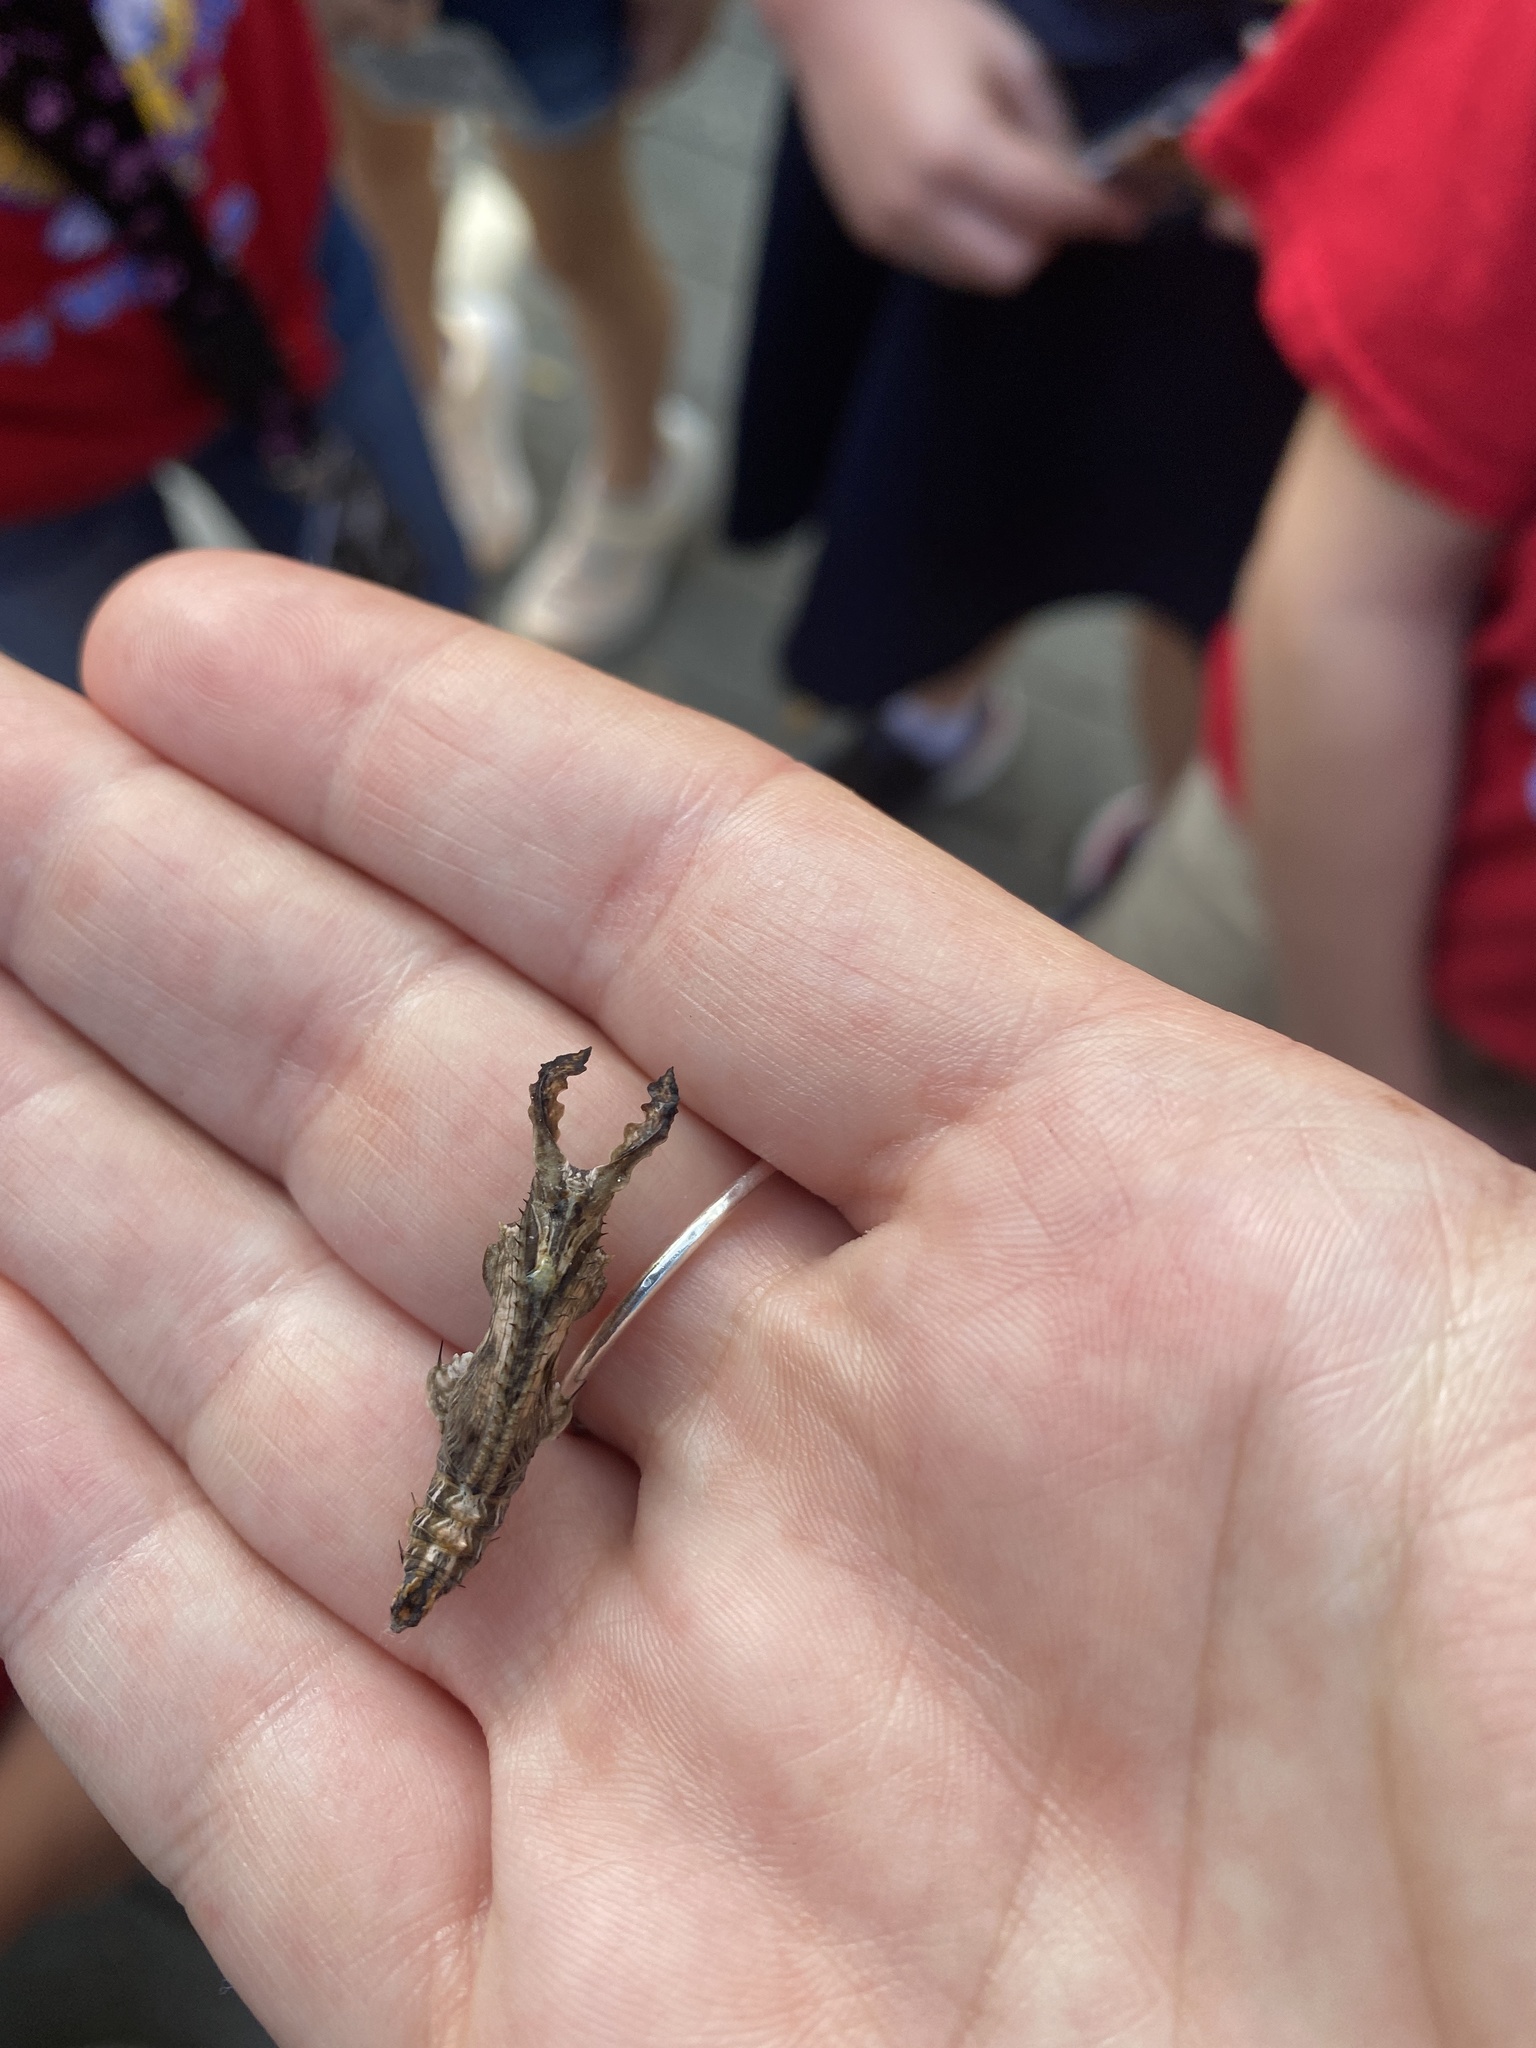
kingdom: Animalia
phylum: Arthropoda
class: Insecta
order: Lepidoptera
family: Nymphalidae
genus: Heliconius
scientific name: Heliconius charithonia
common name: Zebra long wing
